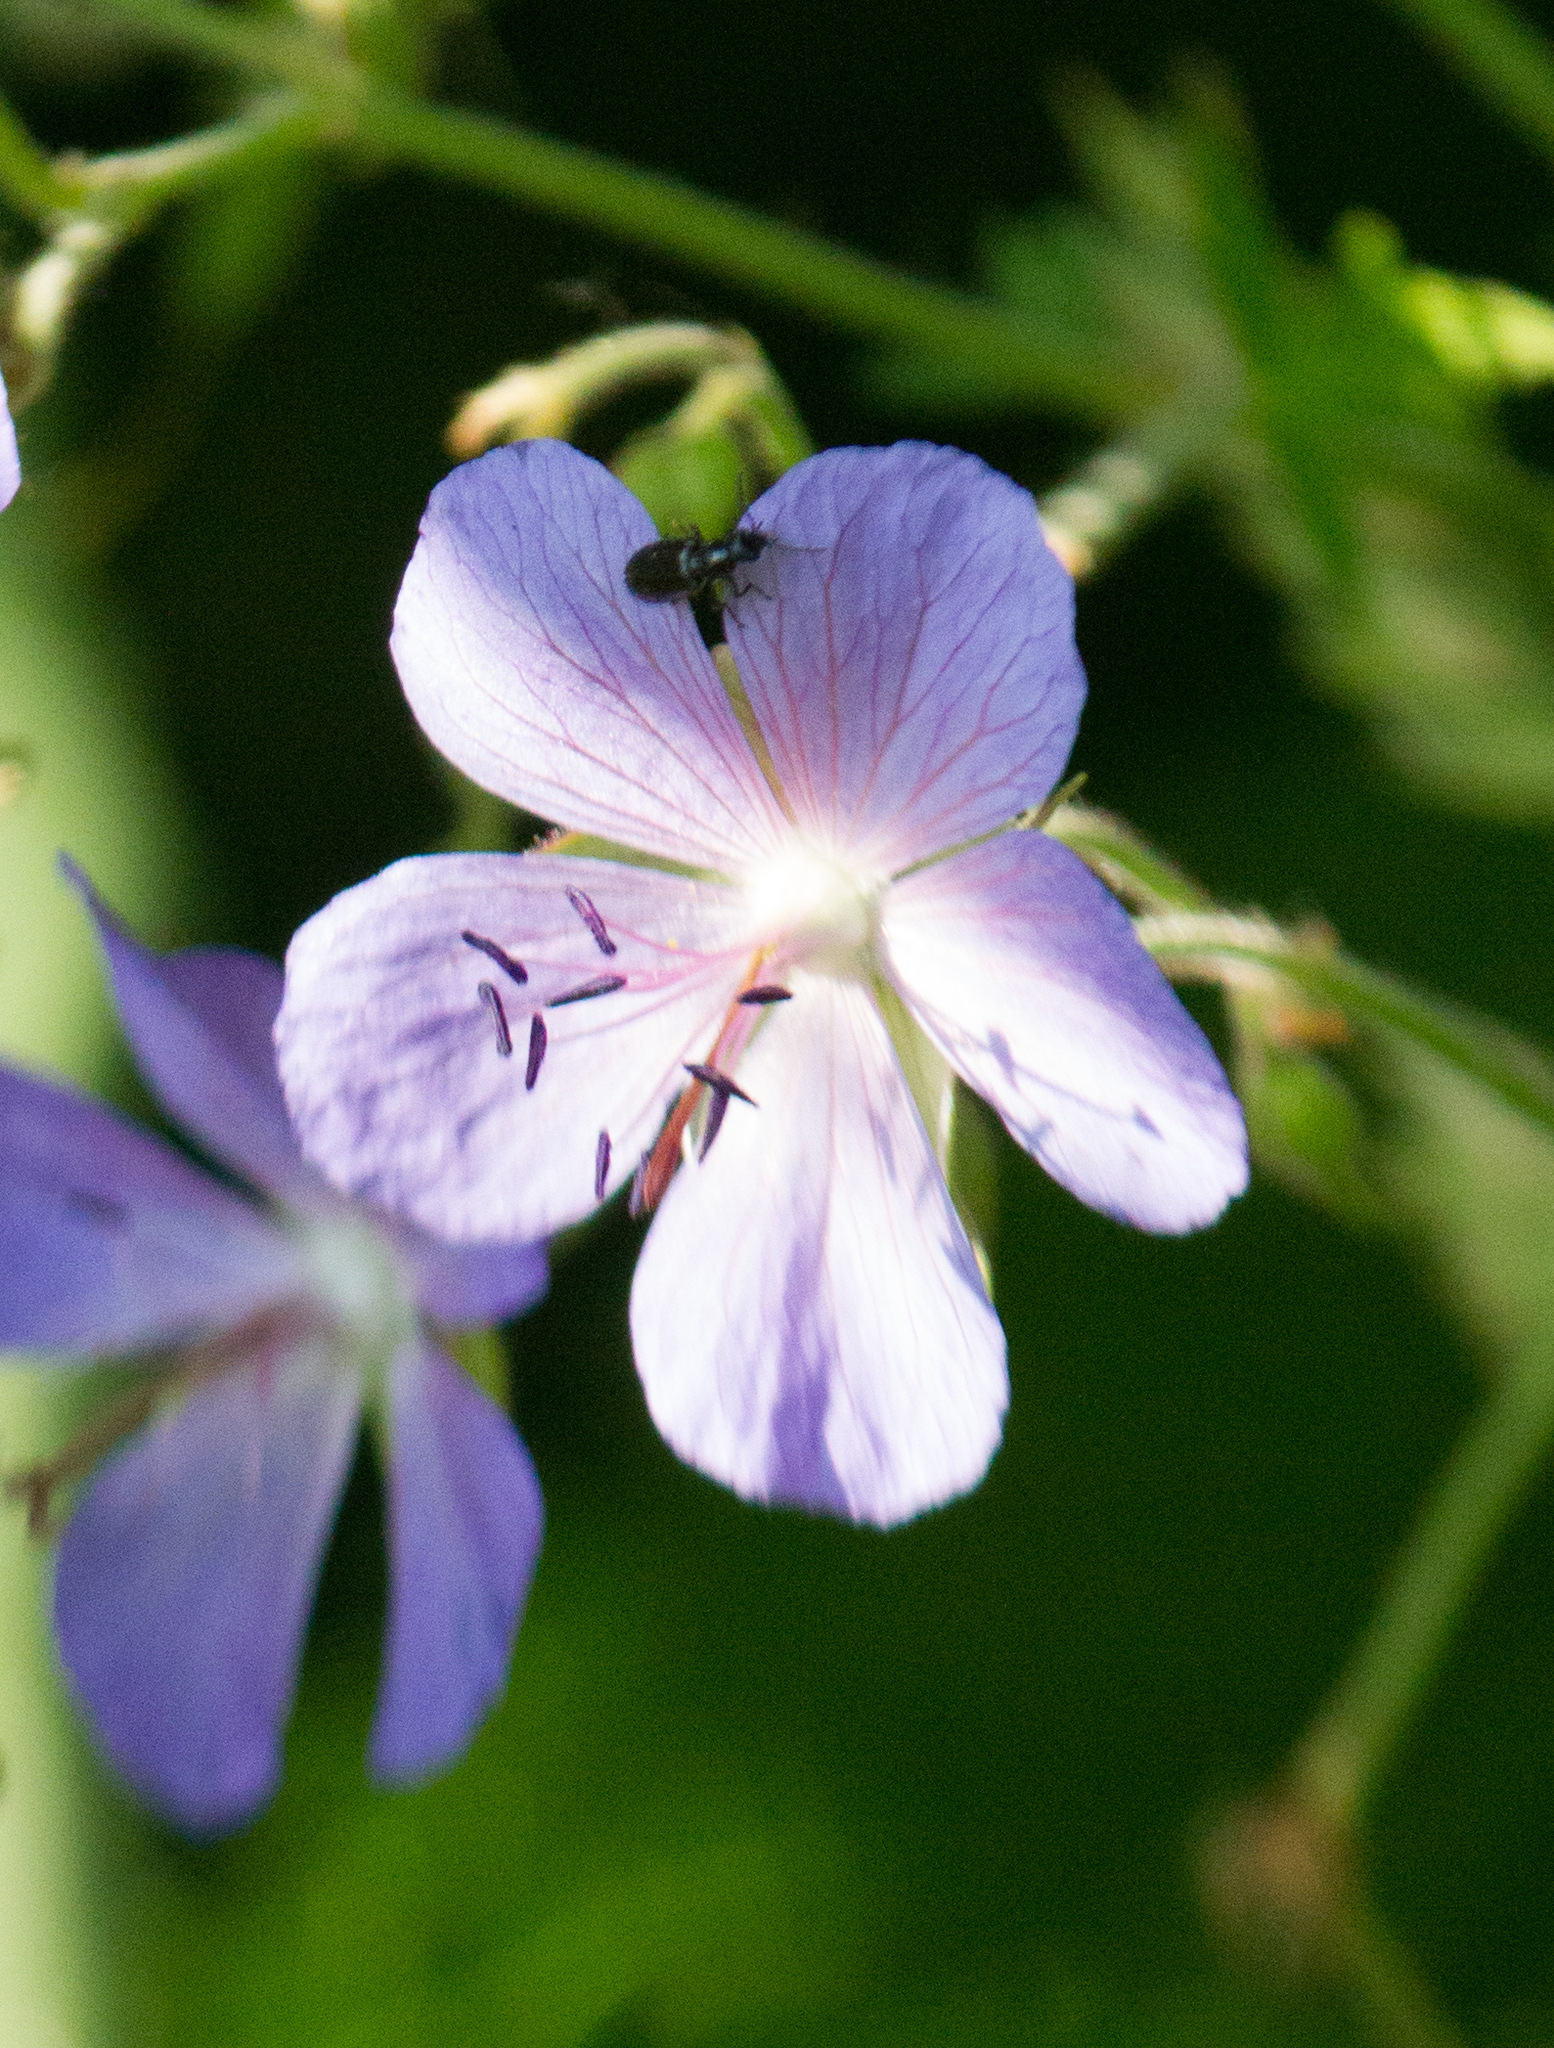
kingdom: Plantae
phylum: Tracheophyta
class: Magnoliopsida
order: Geraniales
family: Geraniaceae
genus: Geranium
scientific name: Geranium pratense
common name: Meadow crane's-bill
